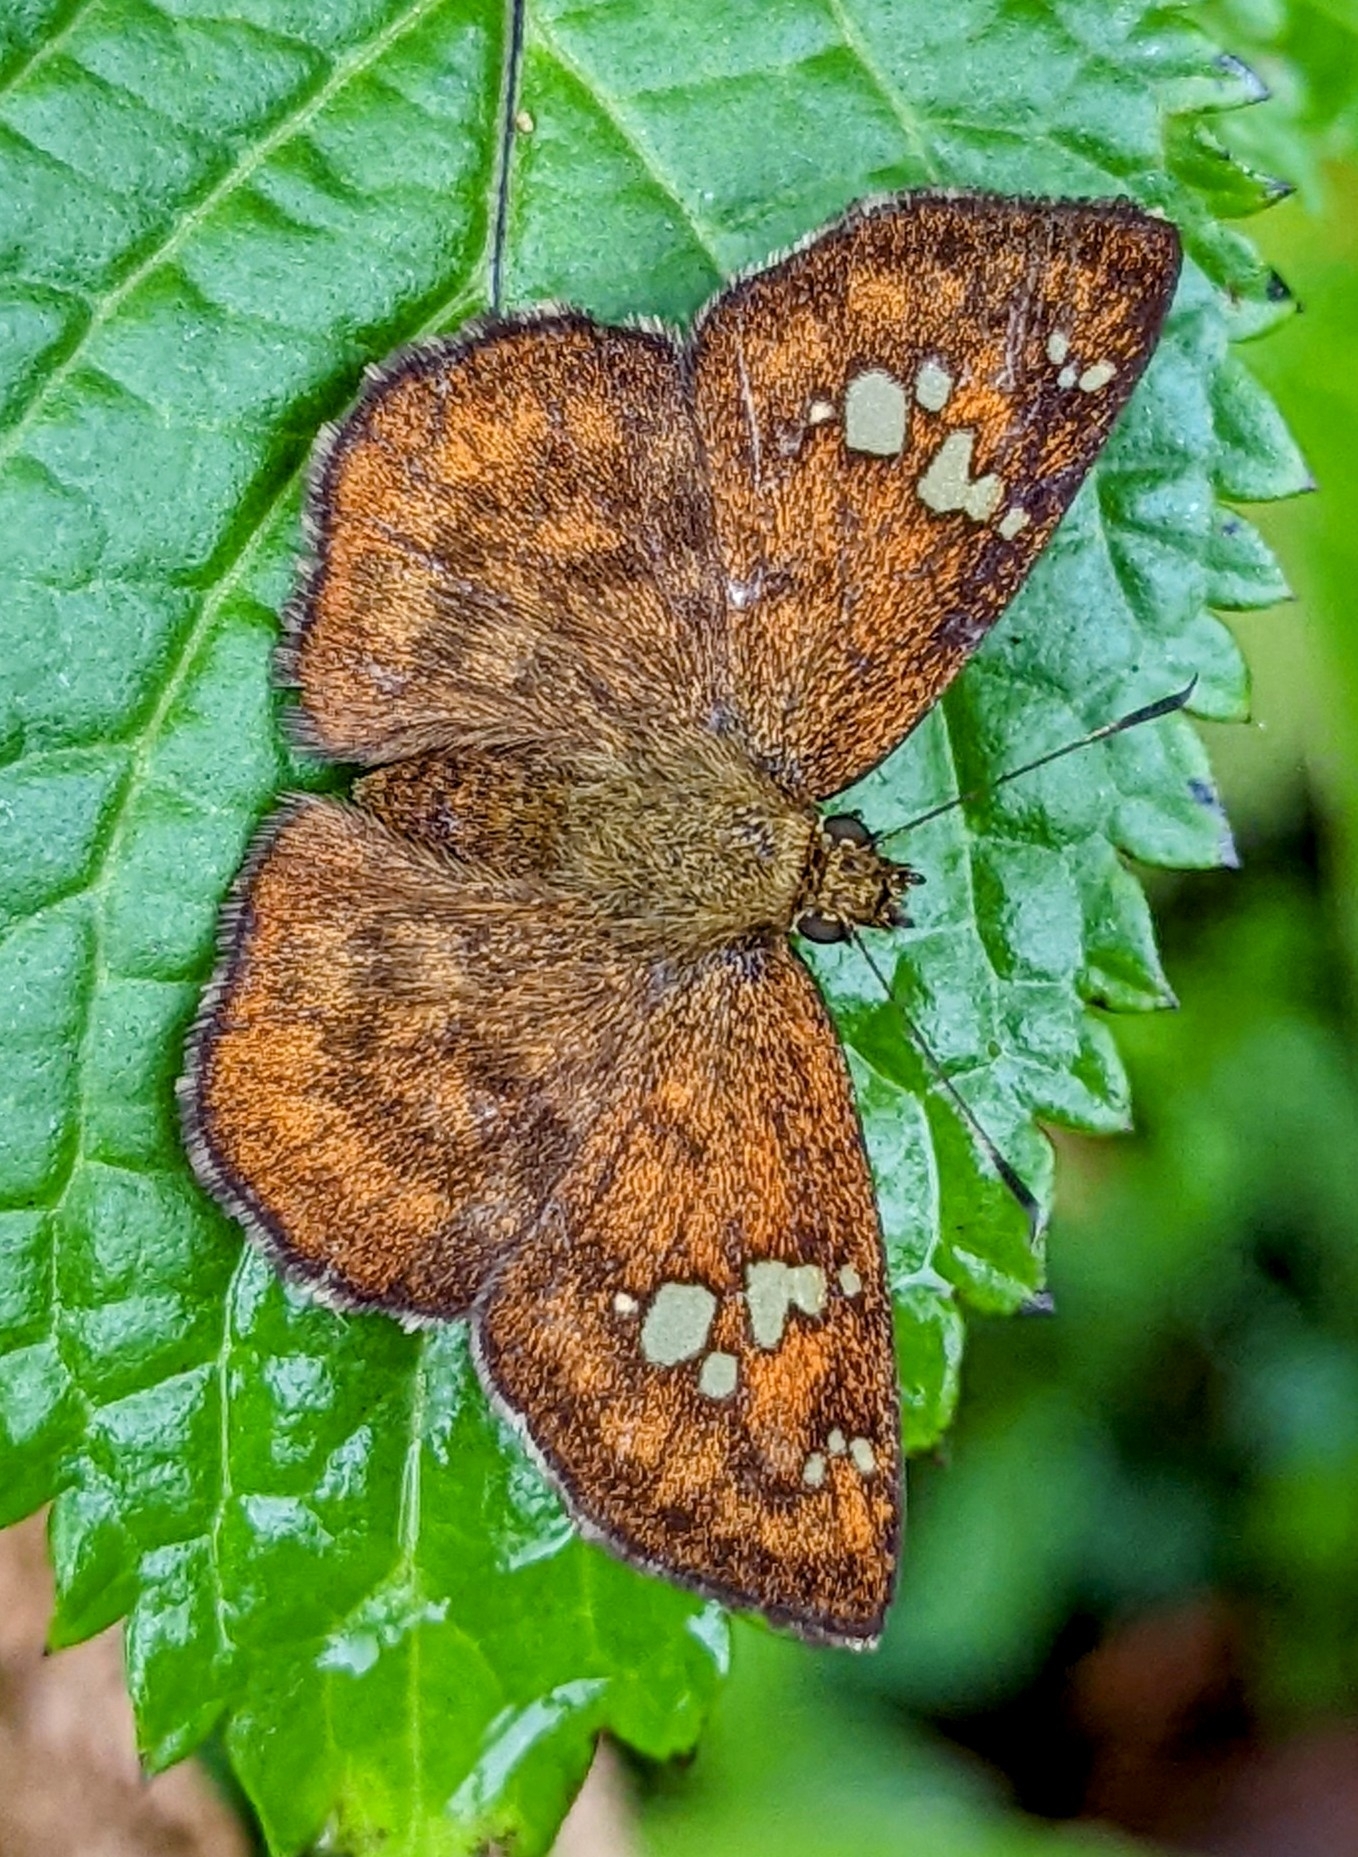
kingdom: Animalia
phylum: Arthropoda
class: Insecta
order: Lepidoptera
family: Hesperiidae
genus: Pseudocoladenia
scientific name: Pseudocoladenia dan
